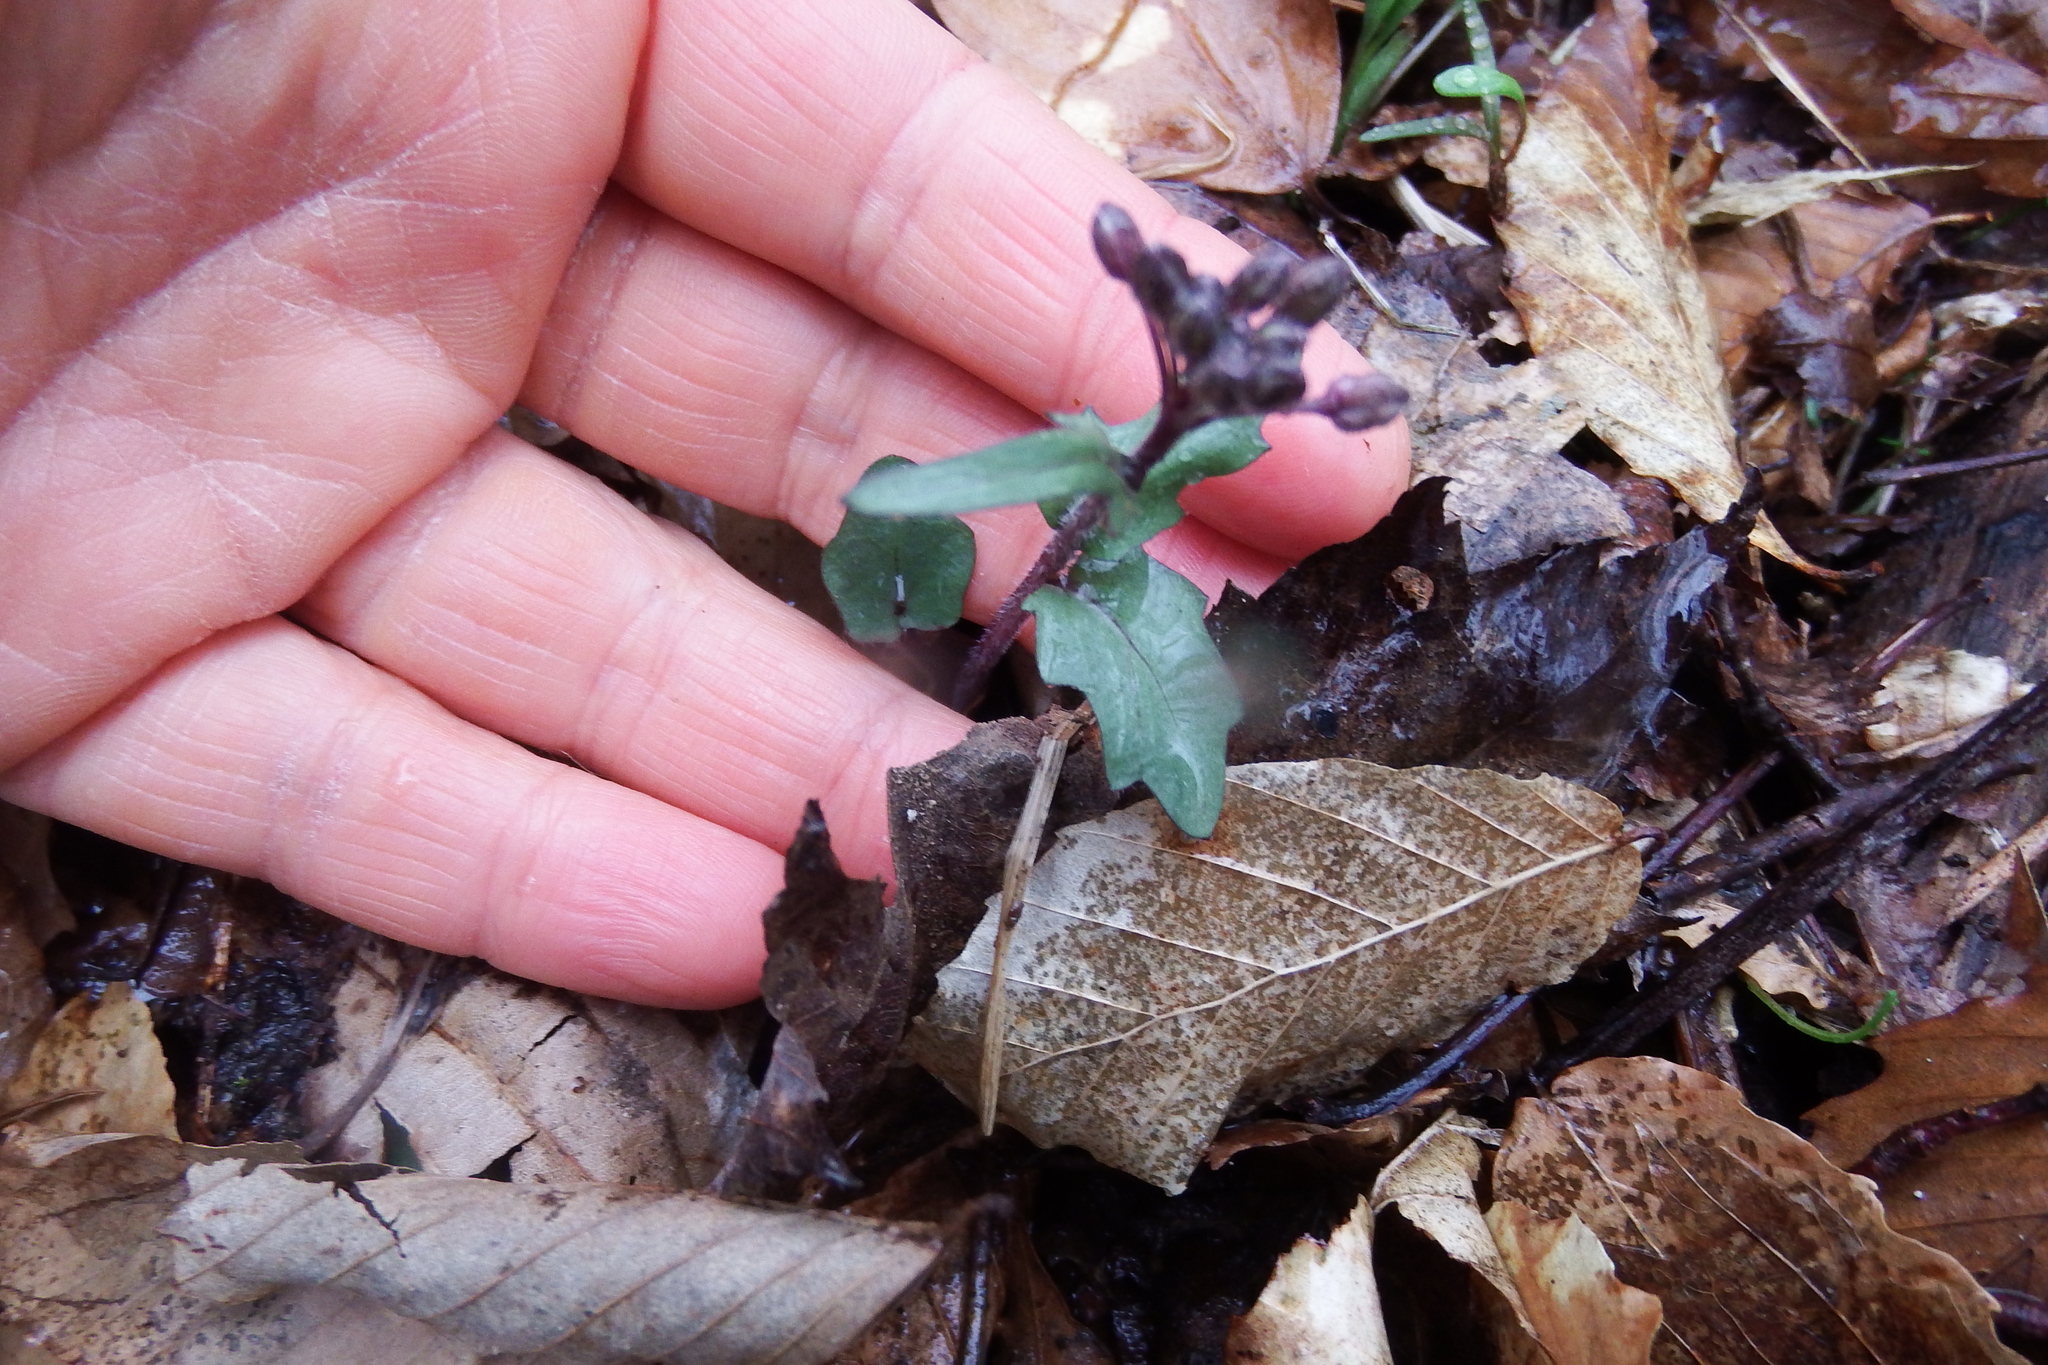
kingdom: Plantae
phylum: Tracheophyta
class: Magnoliopsida
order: Brassicales
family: Brassicaceae
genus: Cardamine
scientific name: Cardamine douglassii
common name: Purple cress
